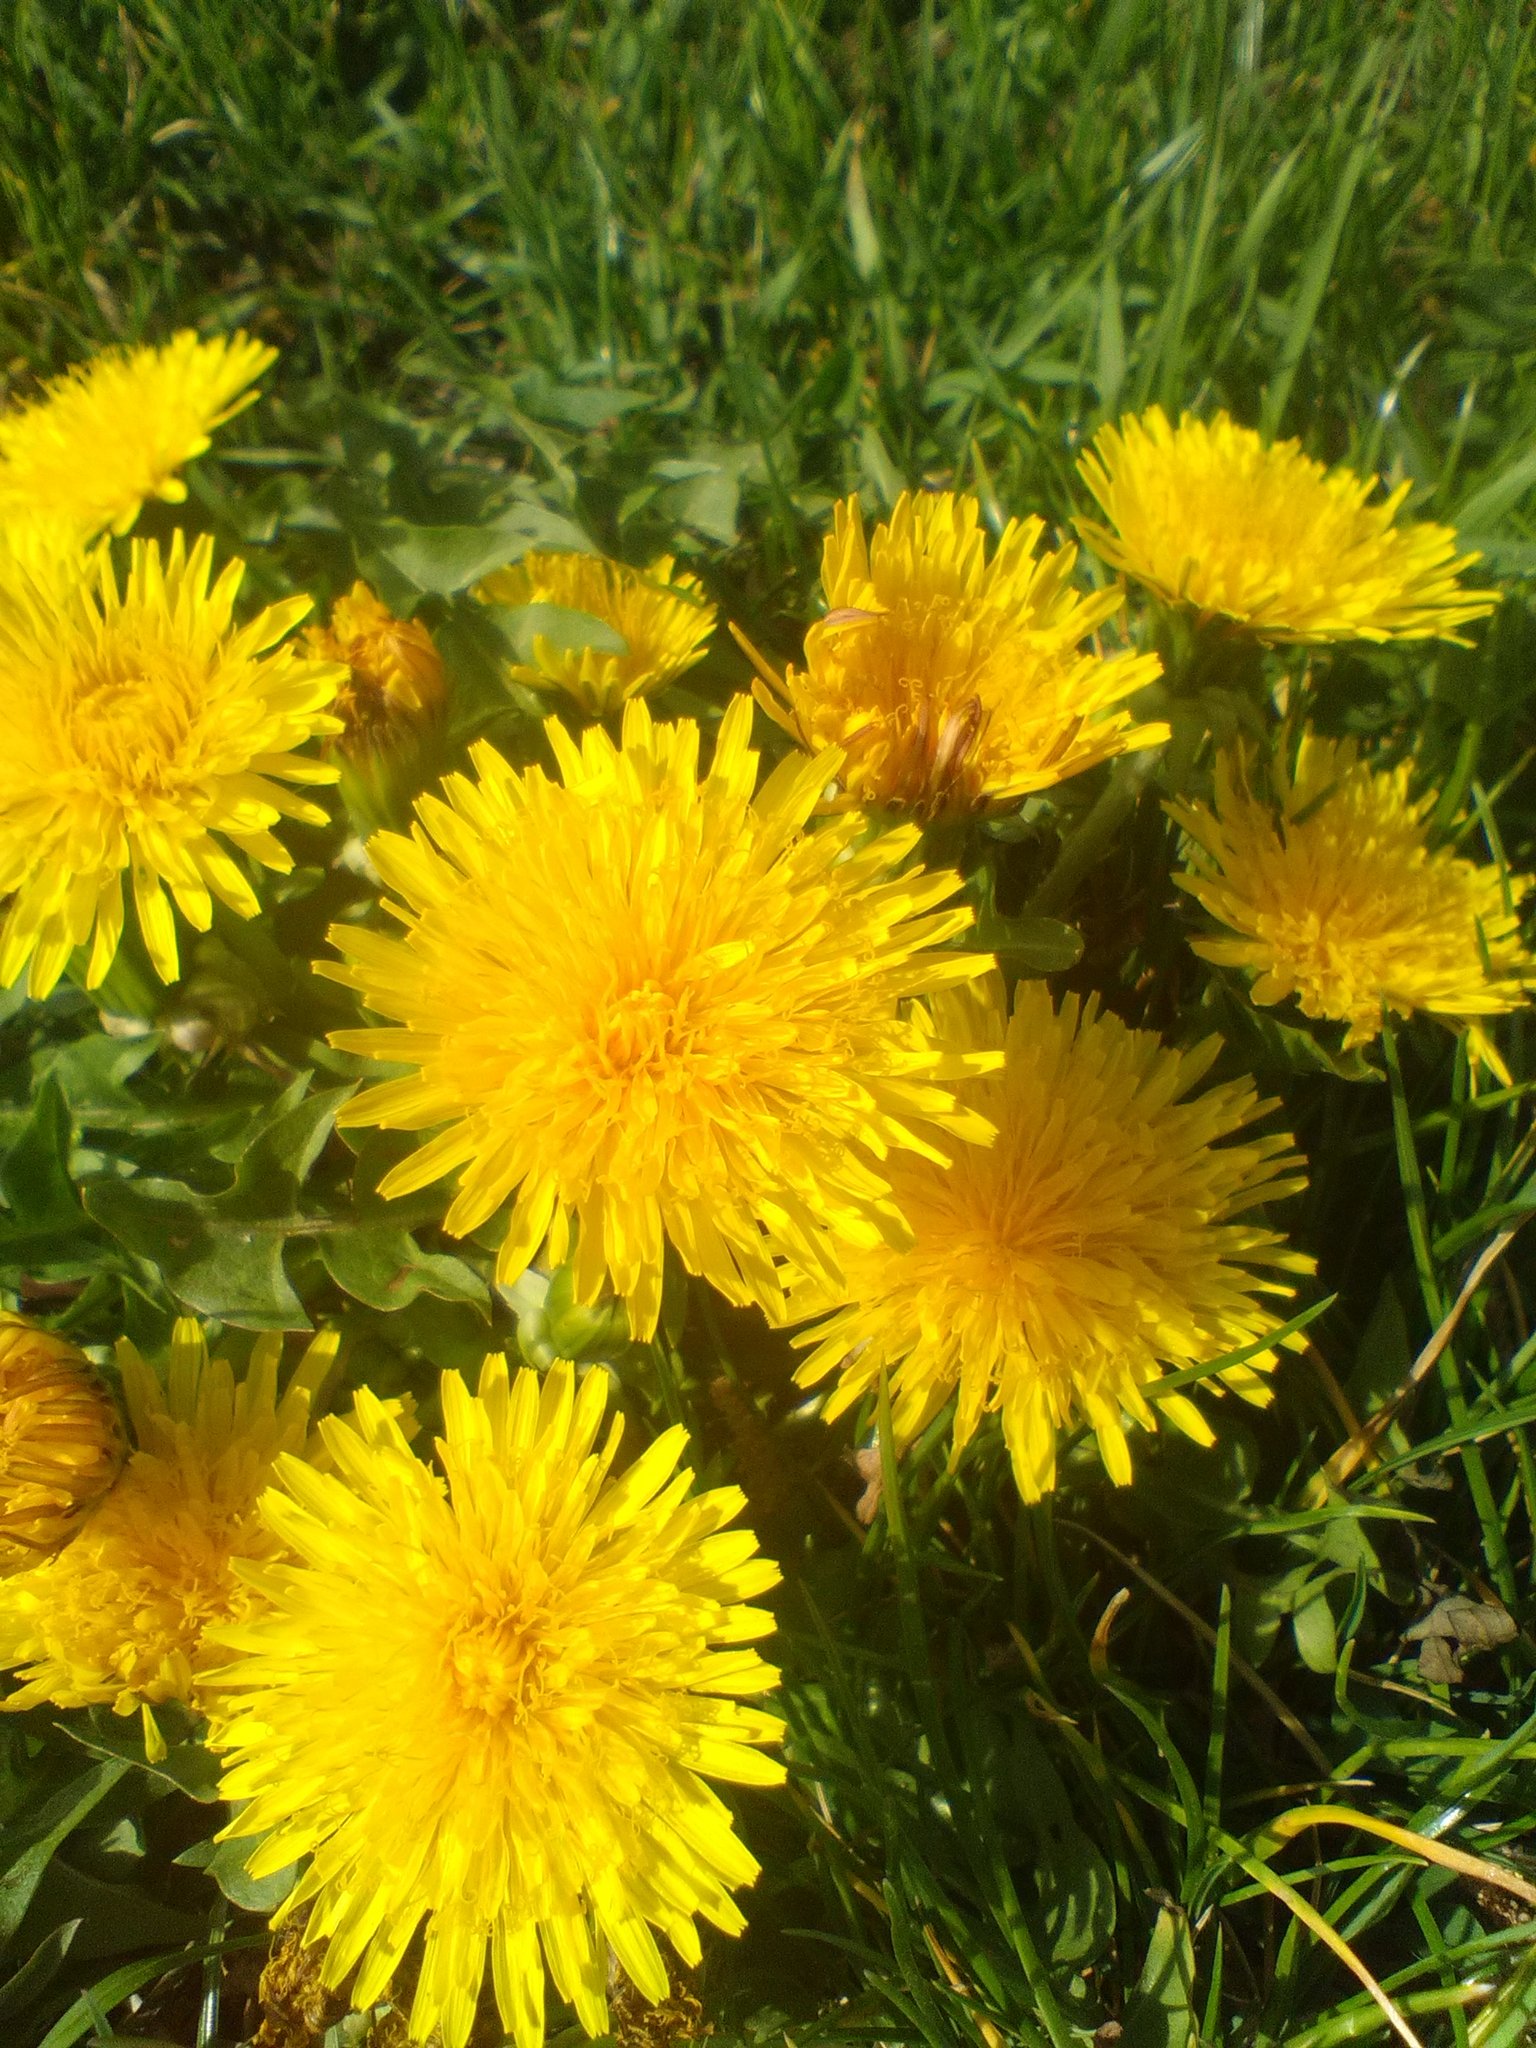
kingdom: Plantae
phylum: Tracheophyta
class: Magnoliopsida
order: Asterales
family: Asteraceae
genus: Taraxacum
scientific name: Taraxacum officinale
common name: Common dandelion
